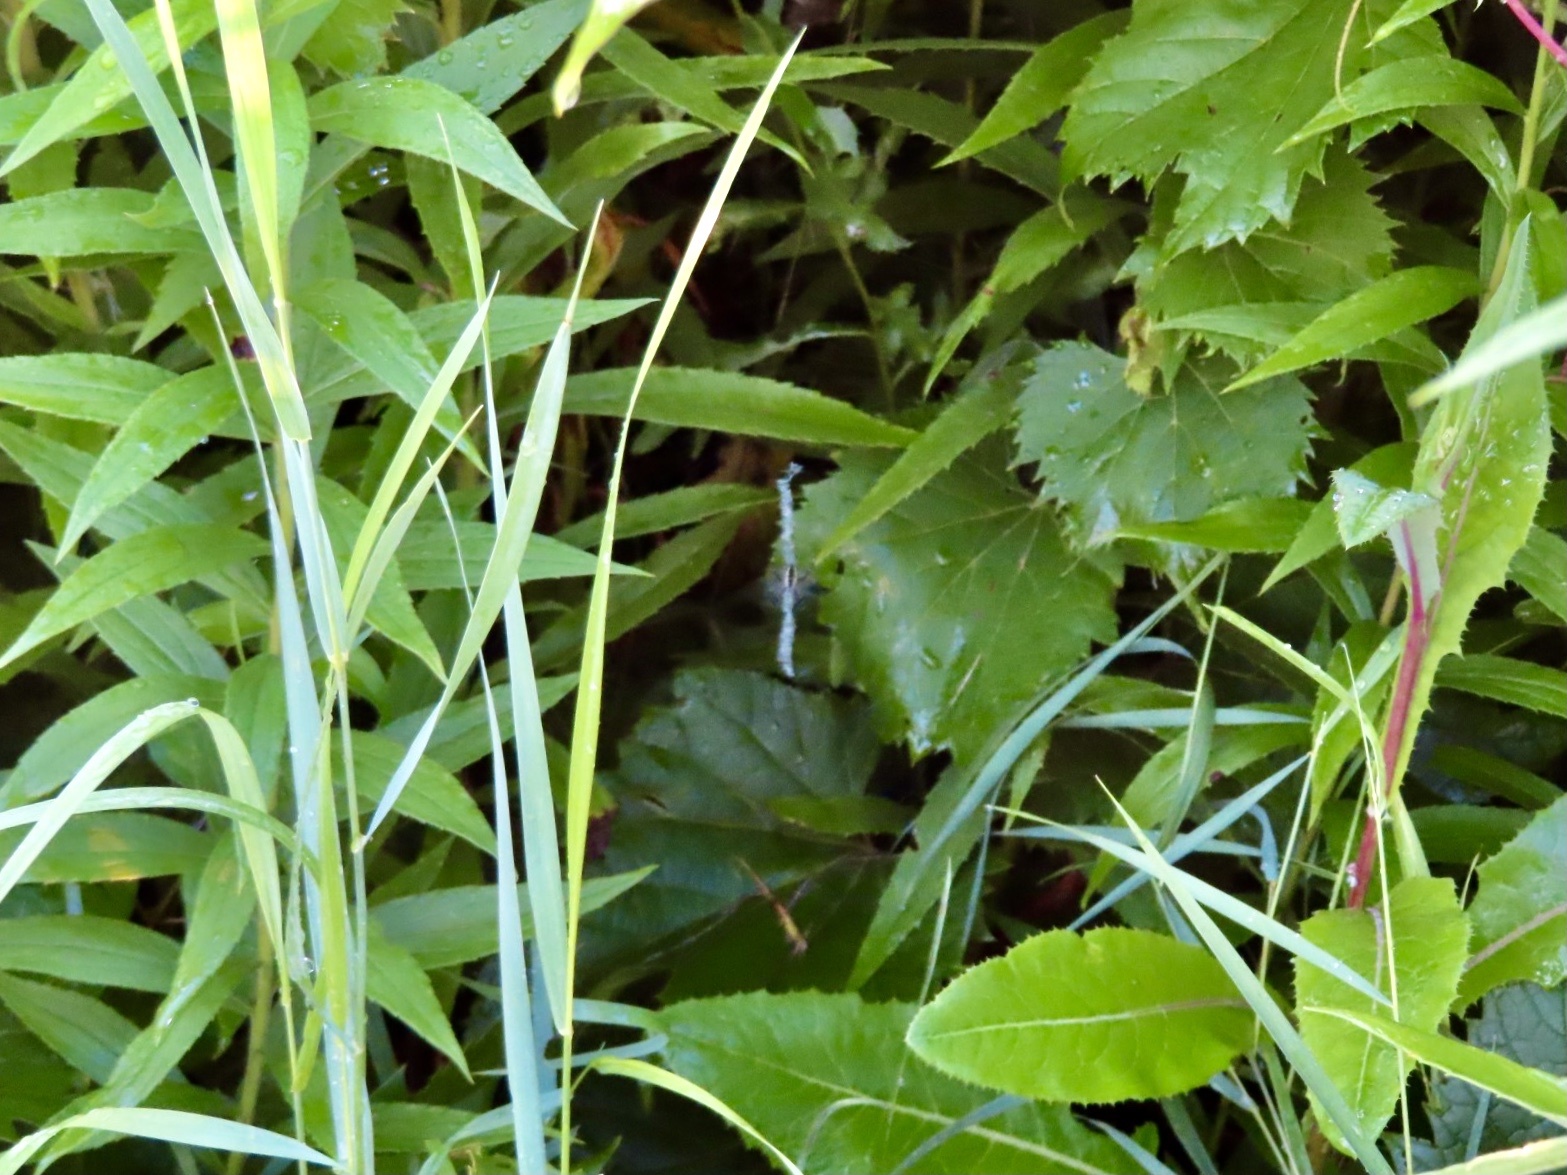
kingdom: Animalia
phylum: Arthropoda
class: Arachnida
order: Araneae
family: Araneidae
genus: Argiope
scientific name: Argiope aurantia
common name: Orb weavers
